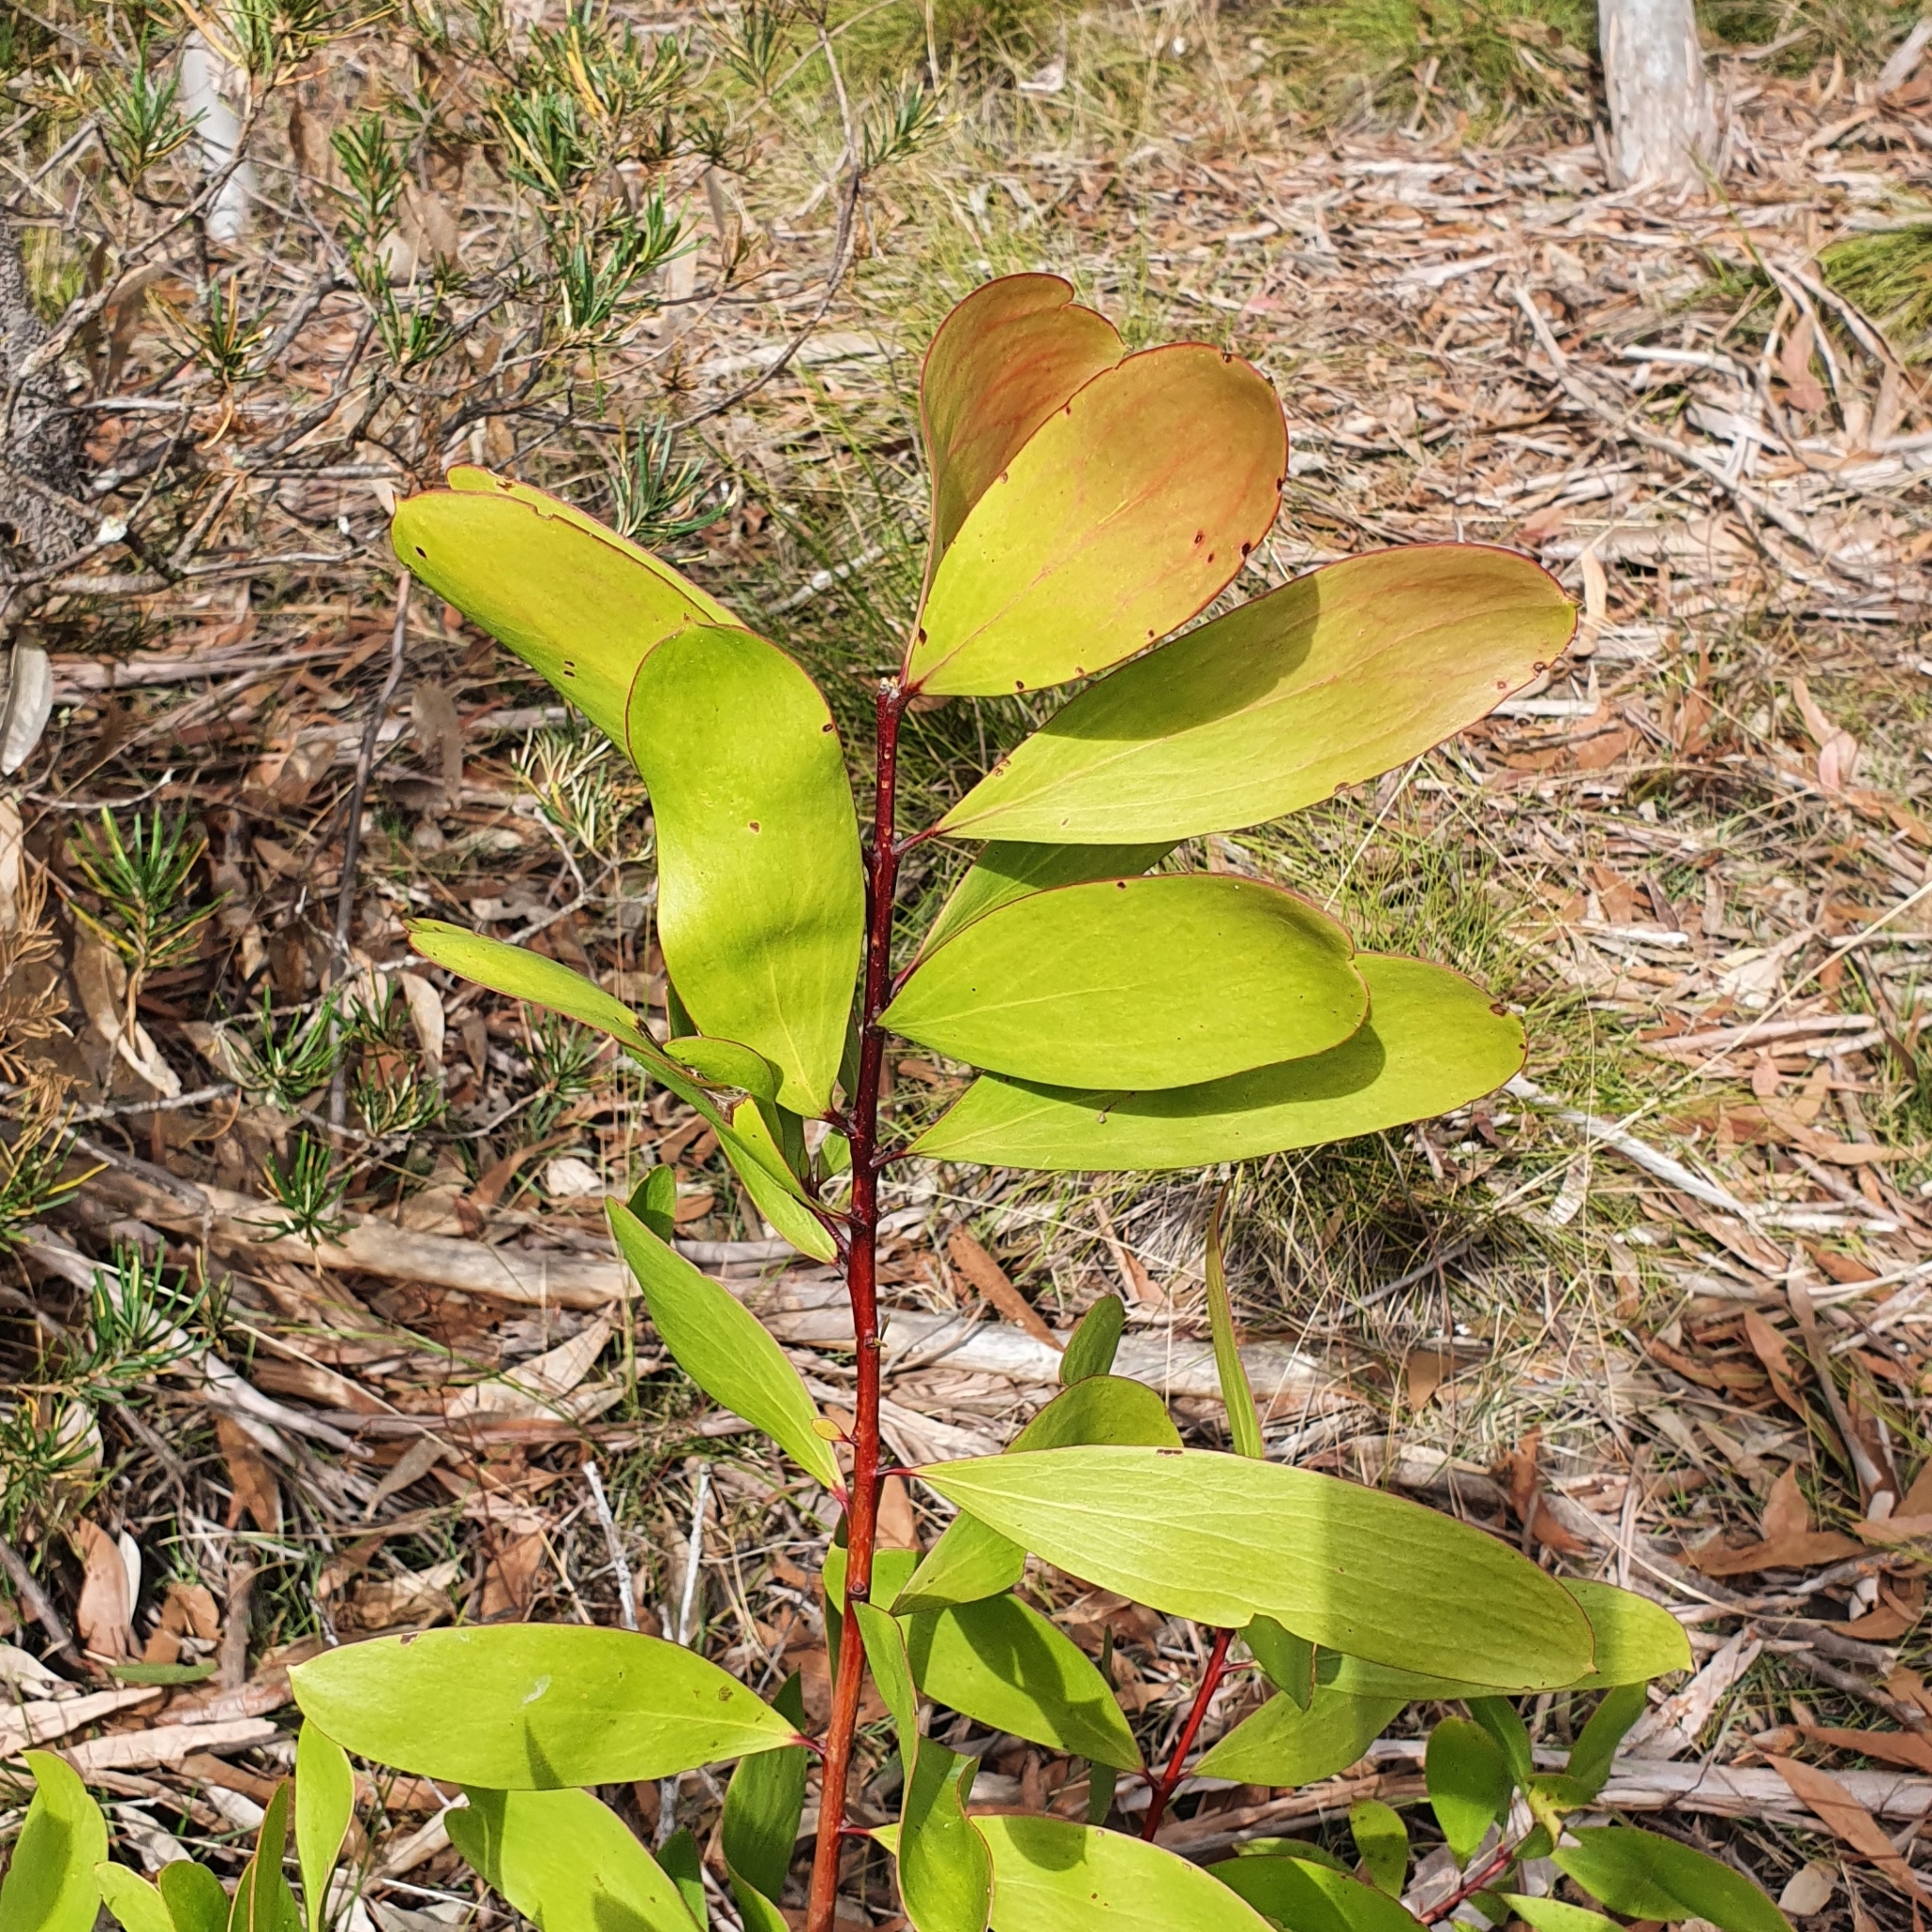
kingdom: Plantae
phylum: Tracheophyta
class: Magnoliopsida
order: Proteales
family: Proteaceae
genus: Persoonia
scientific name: Persoonia levis
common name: Smooth geebung
